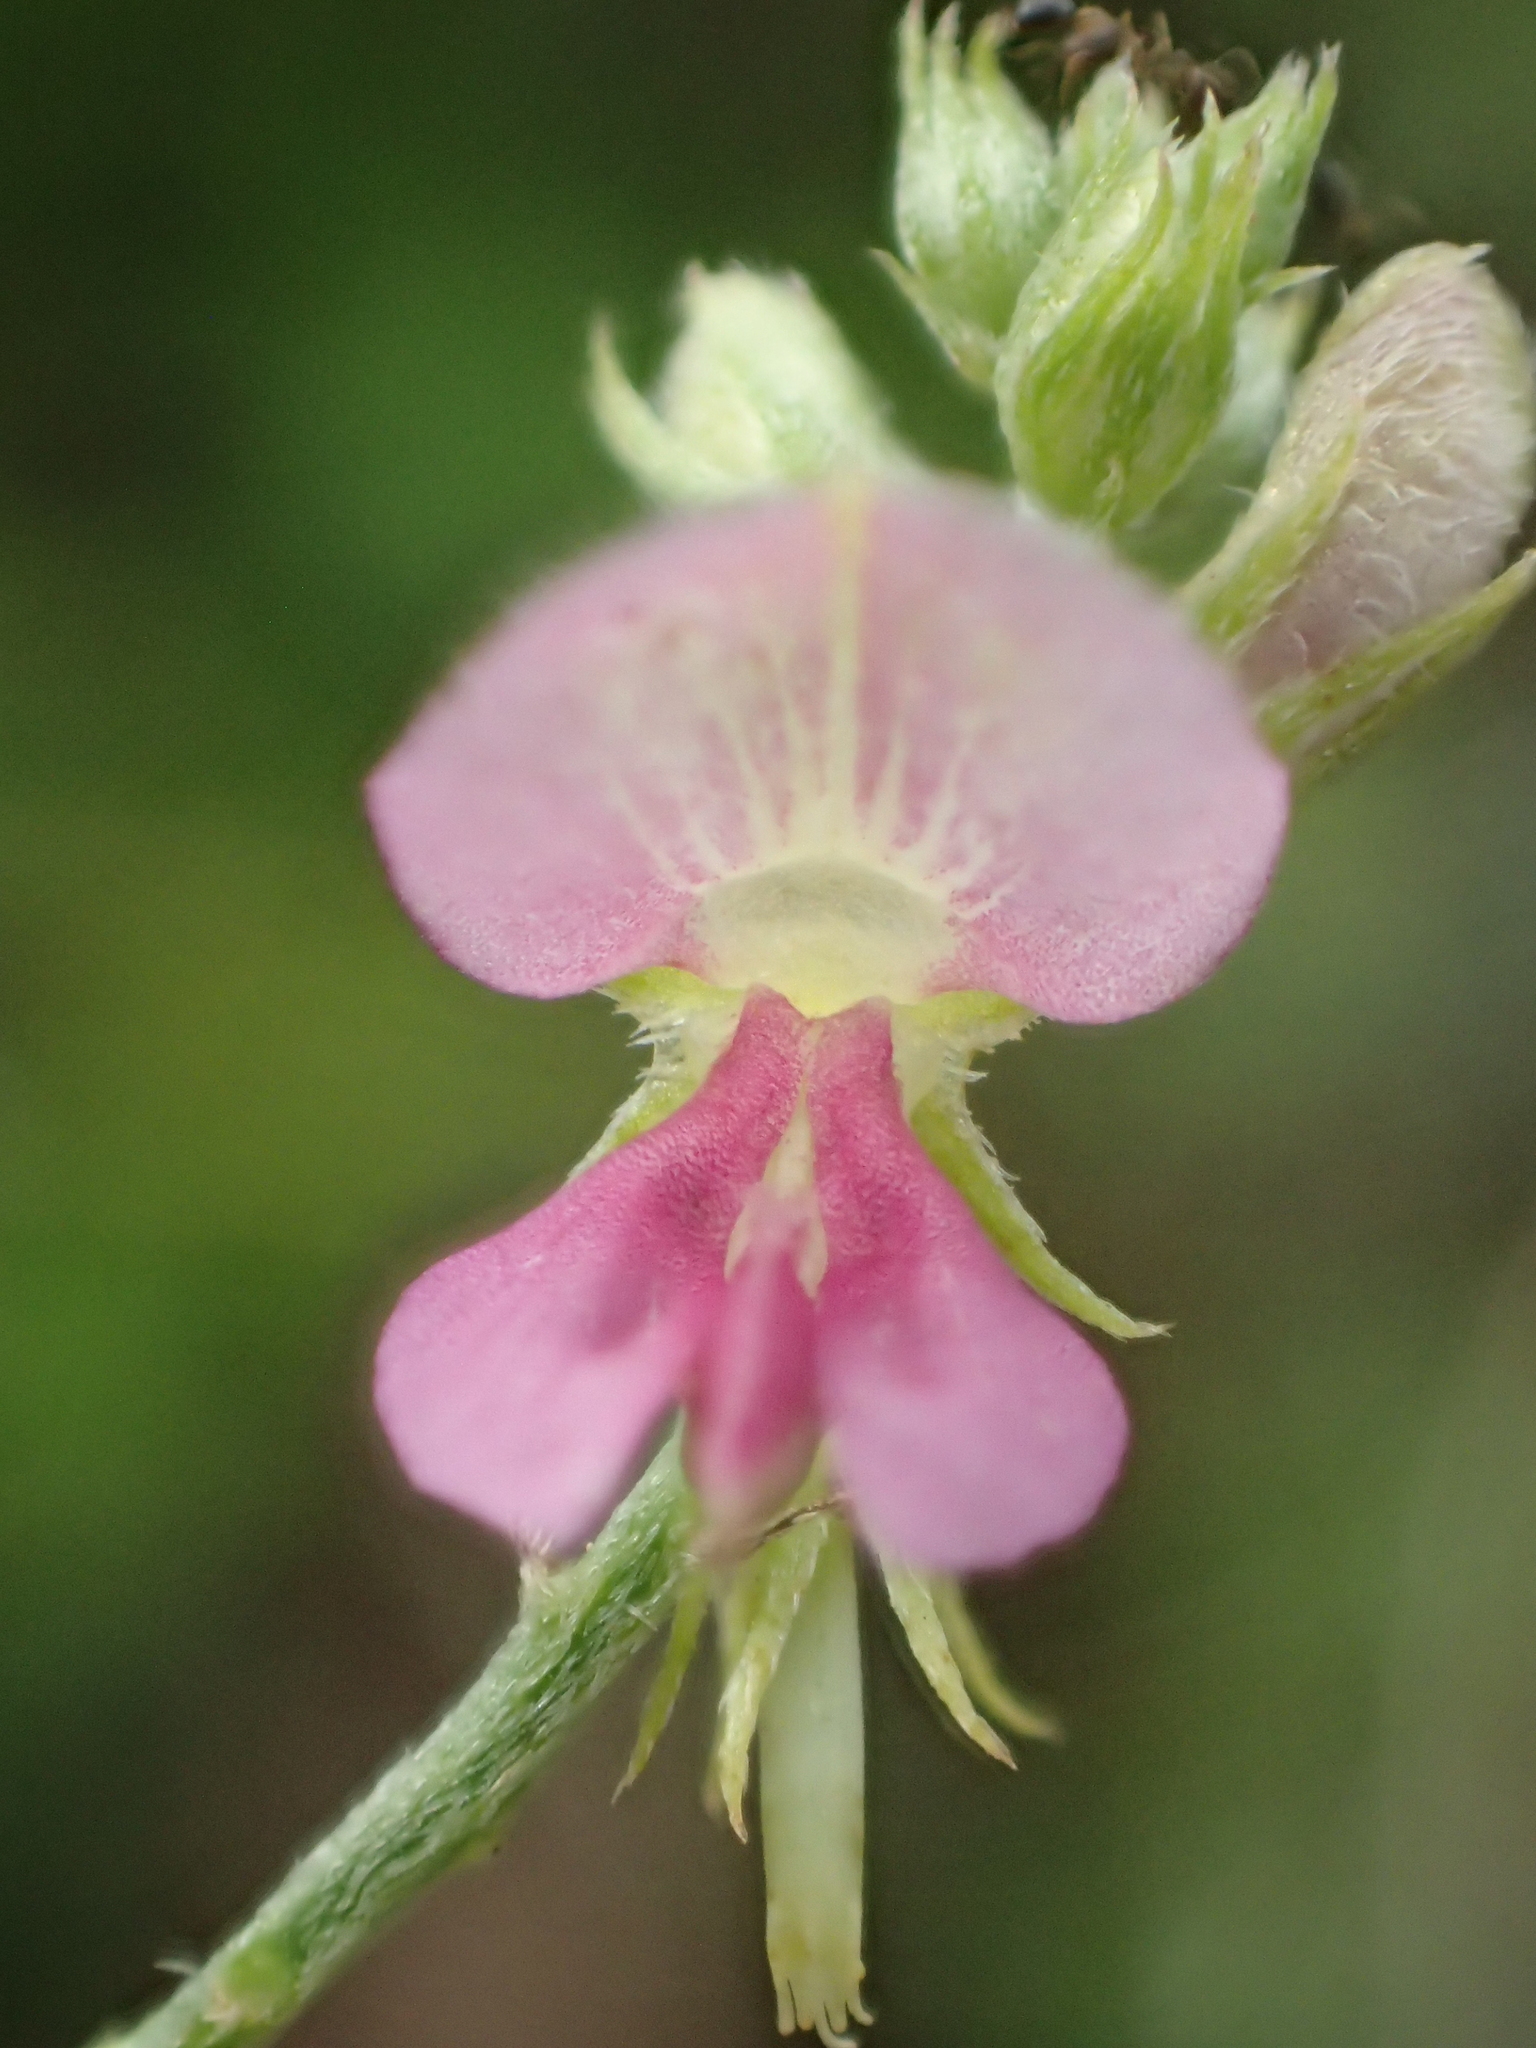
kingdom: Plantae
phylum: Tracheophyta
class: Magnoliopsida
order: Fabales
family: Fabaceae
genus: Indigofera
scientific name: Indigofera byobiensis
